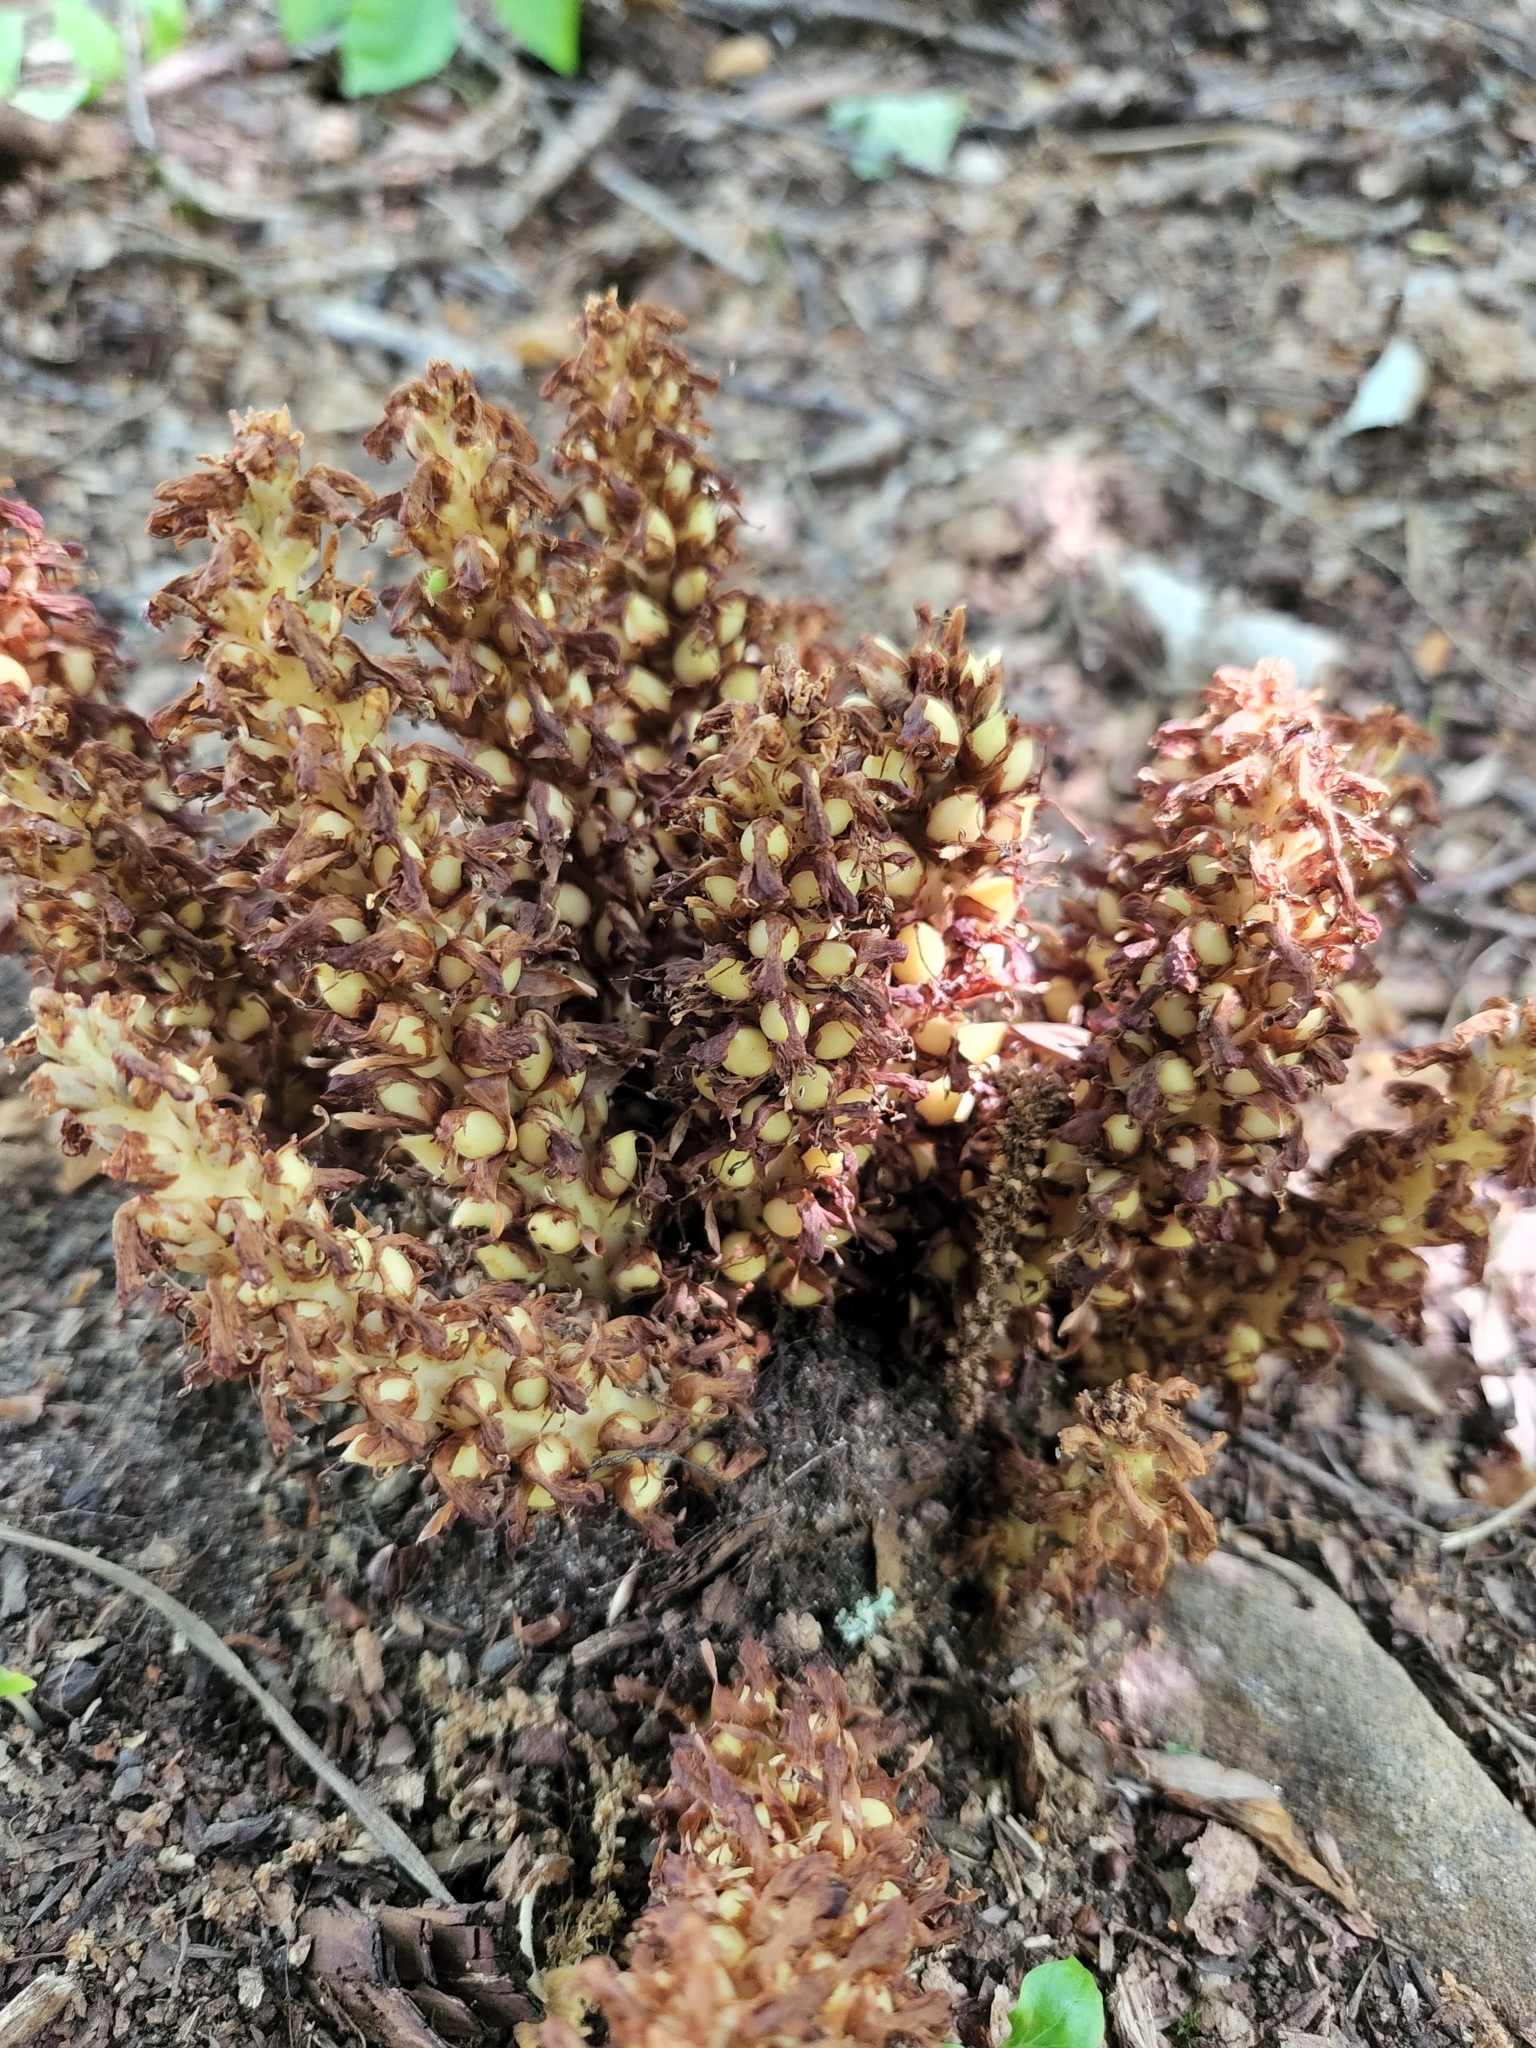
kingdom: Plantae
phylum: Tracheophyta
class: Magnoliopsida
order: Lamiales
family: Orobanchaceae
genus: Conopholis
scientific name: Conopholis americana
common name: American cancer-root
